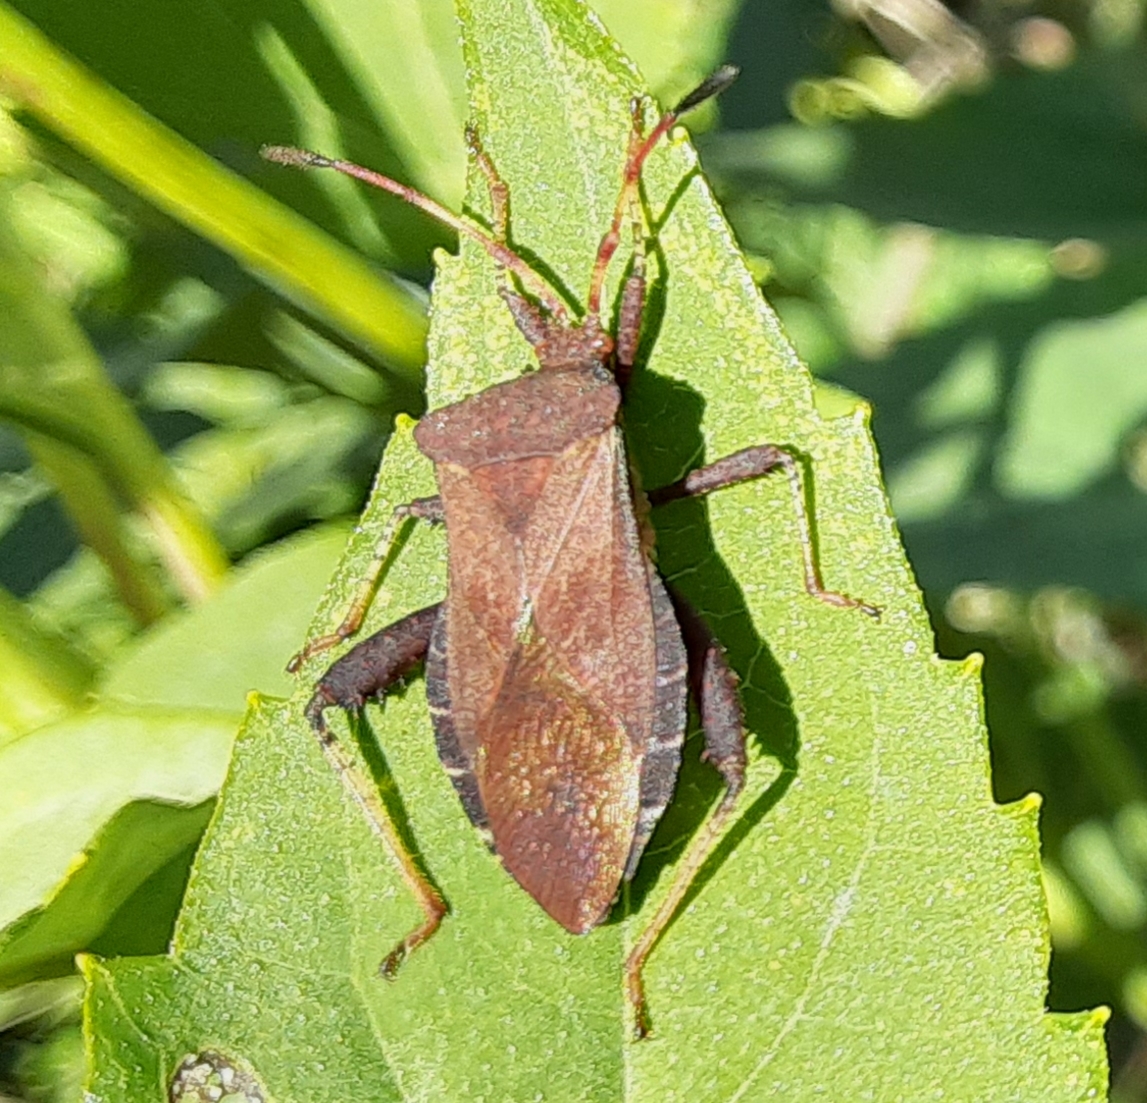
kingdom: Animalia
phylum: Arthropoda
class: Insecta
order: Hemiptera
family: Coreidae
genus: Euthochtha
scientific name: Euthochtha galeator
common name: Helmeted squash bug
